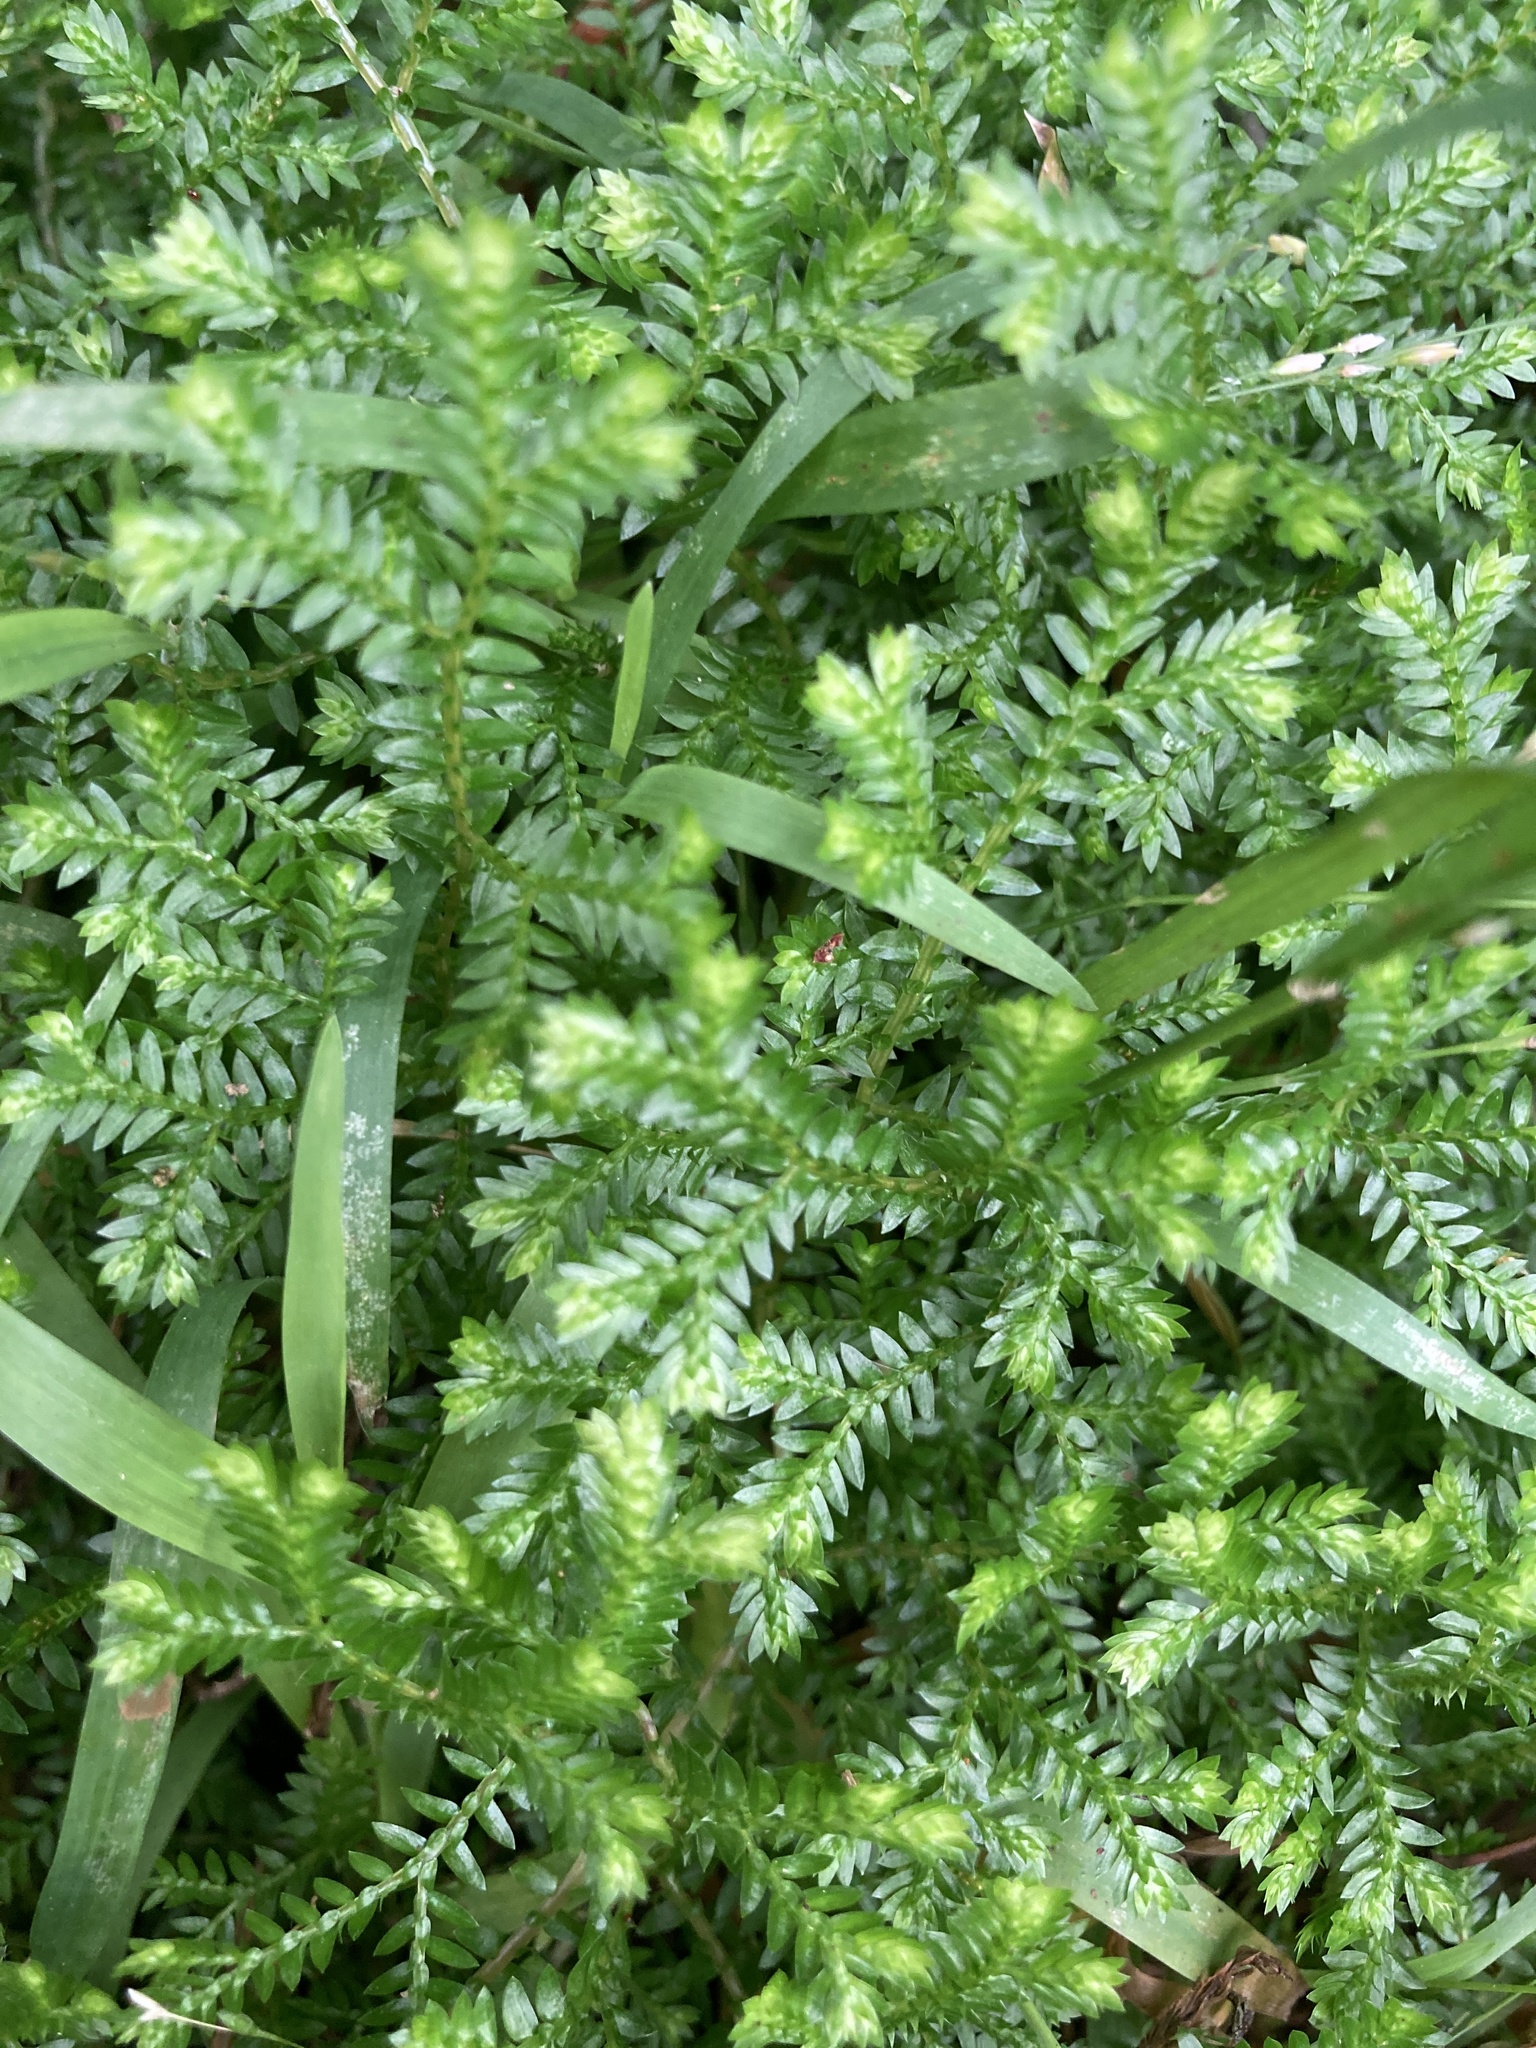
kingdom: Plantae
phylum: Tracheophyta
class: Lycopodiopsida
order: Selaginellales
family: Selaginellaceae
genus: Selaginella
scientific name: Selaginella kraussiana
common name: Krauss' spikemoss
